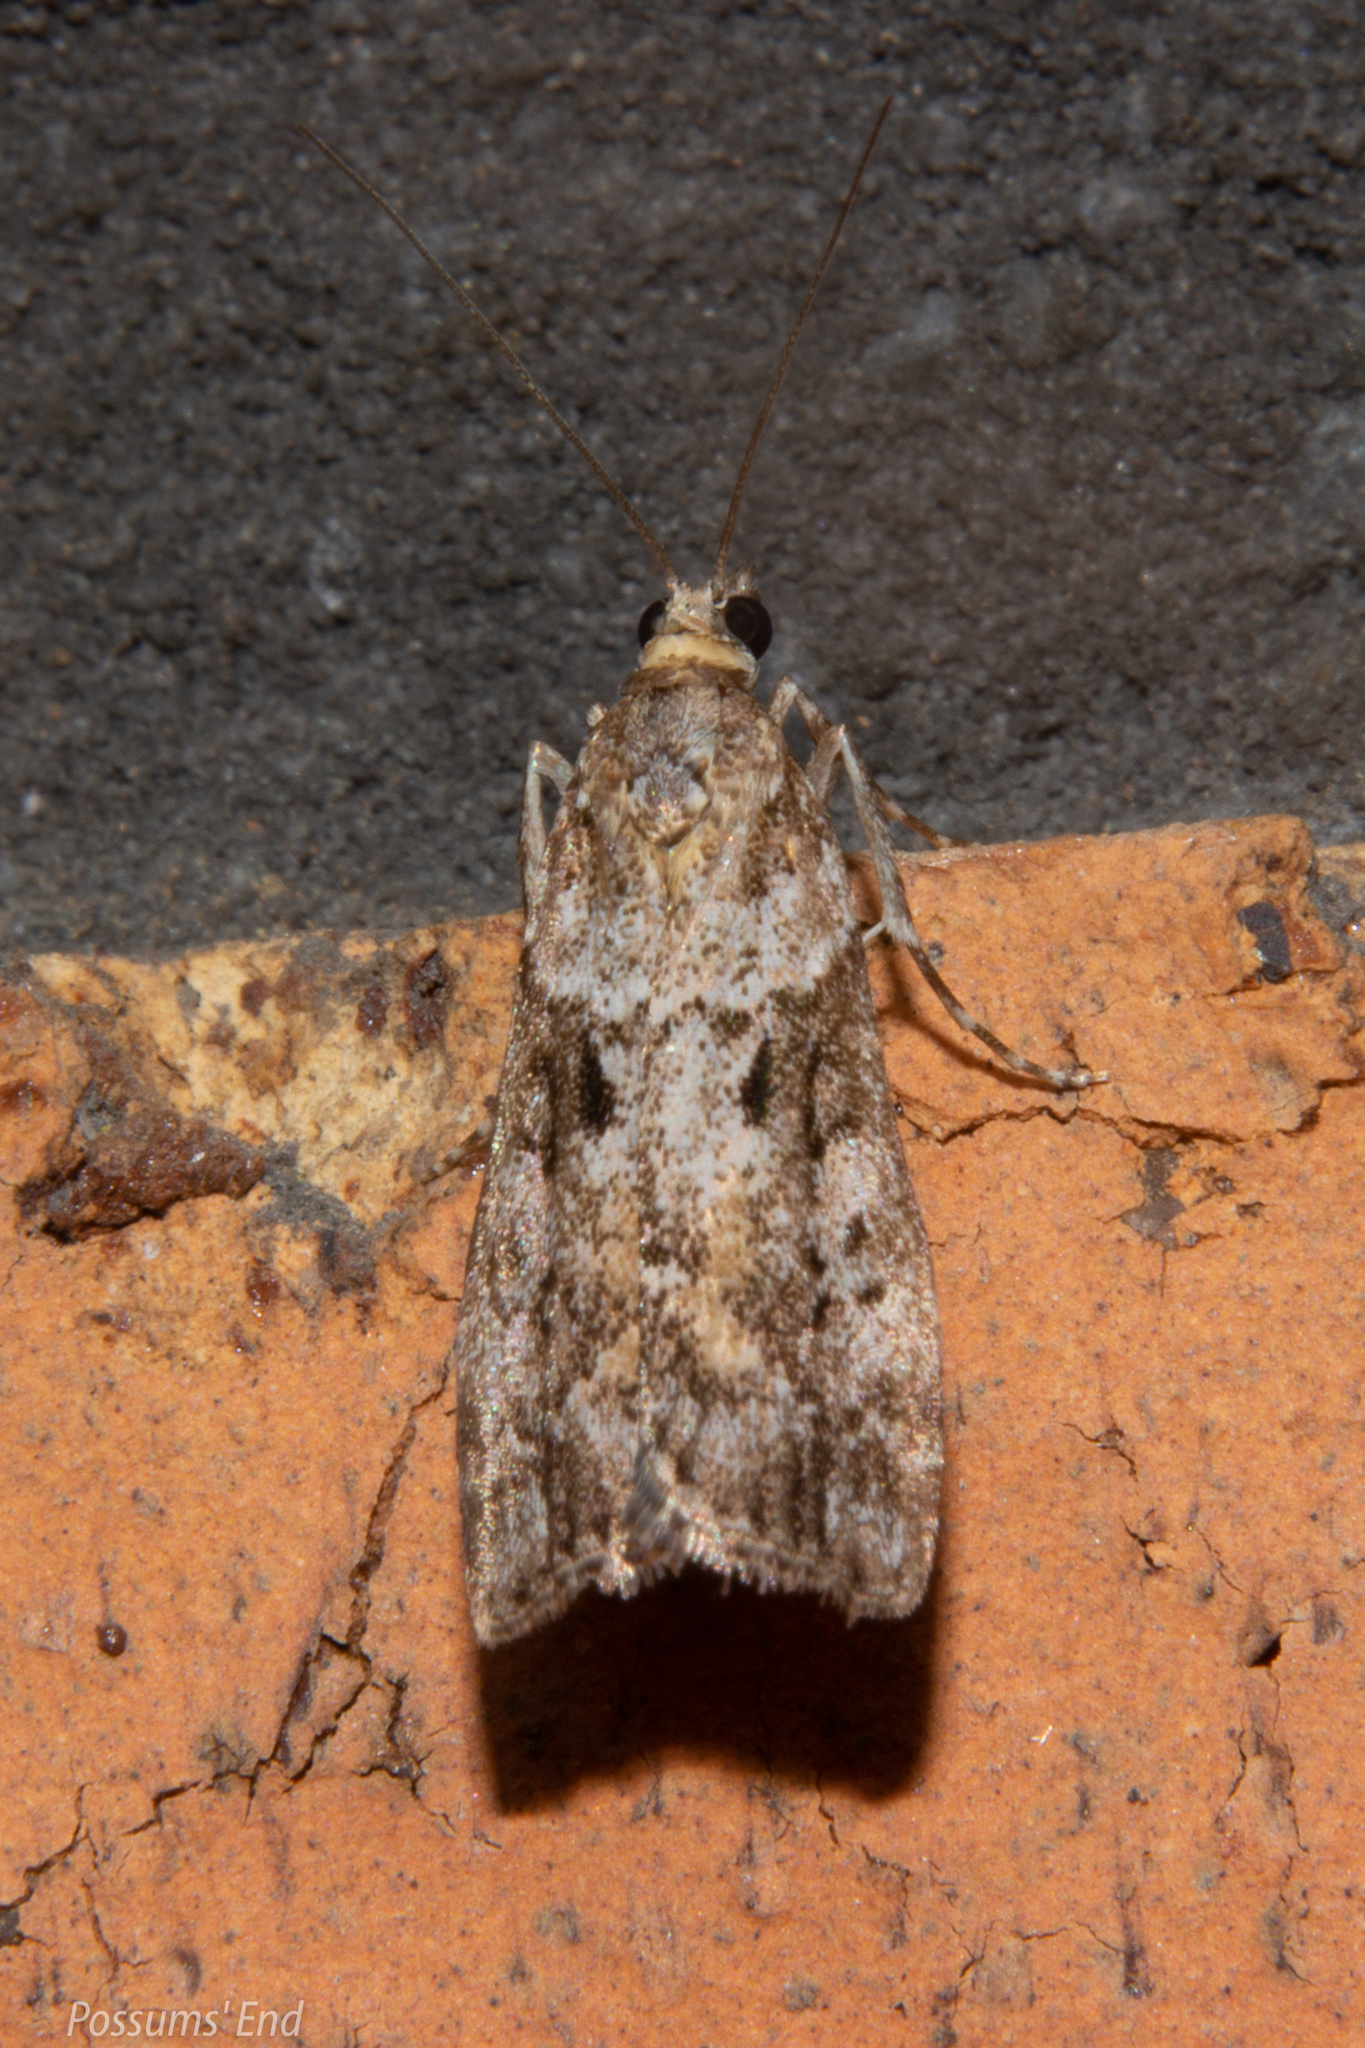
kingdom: Animalia
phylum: Arthropoda
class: Insecta
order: Lepidoptera
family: Crambidae
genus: Eudonia
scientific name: Eudonia submarginalis
